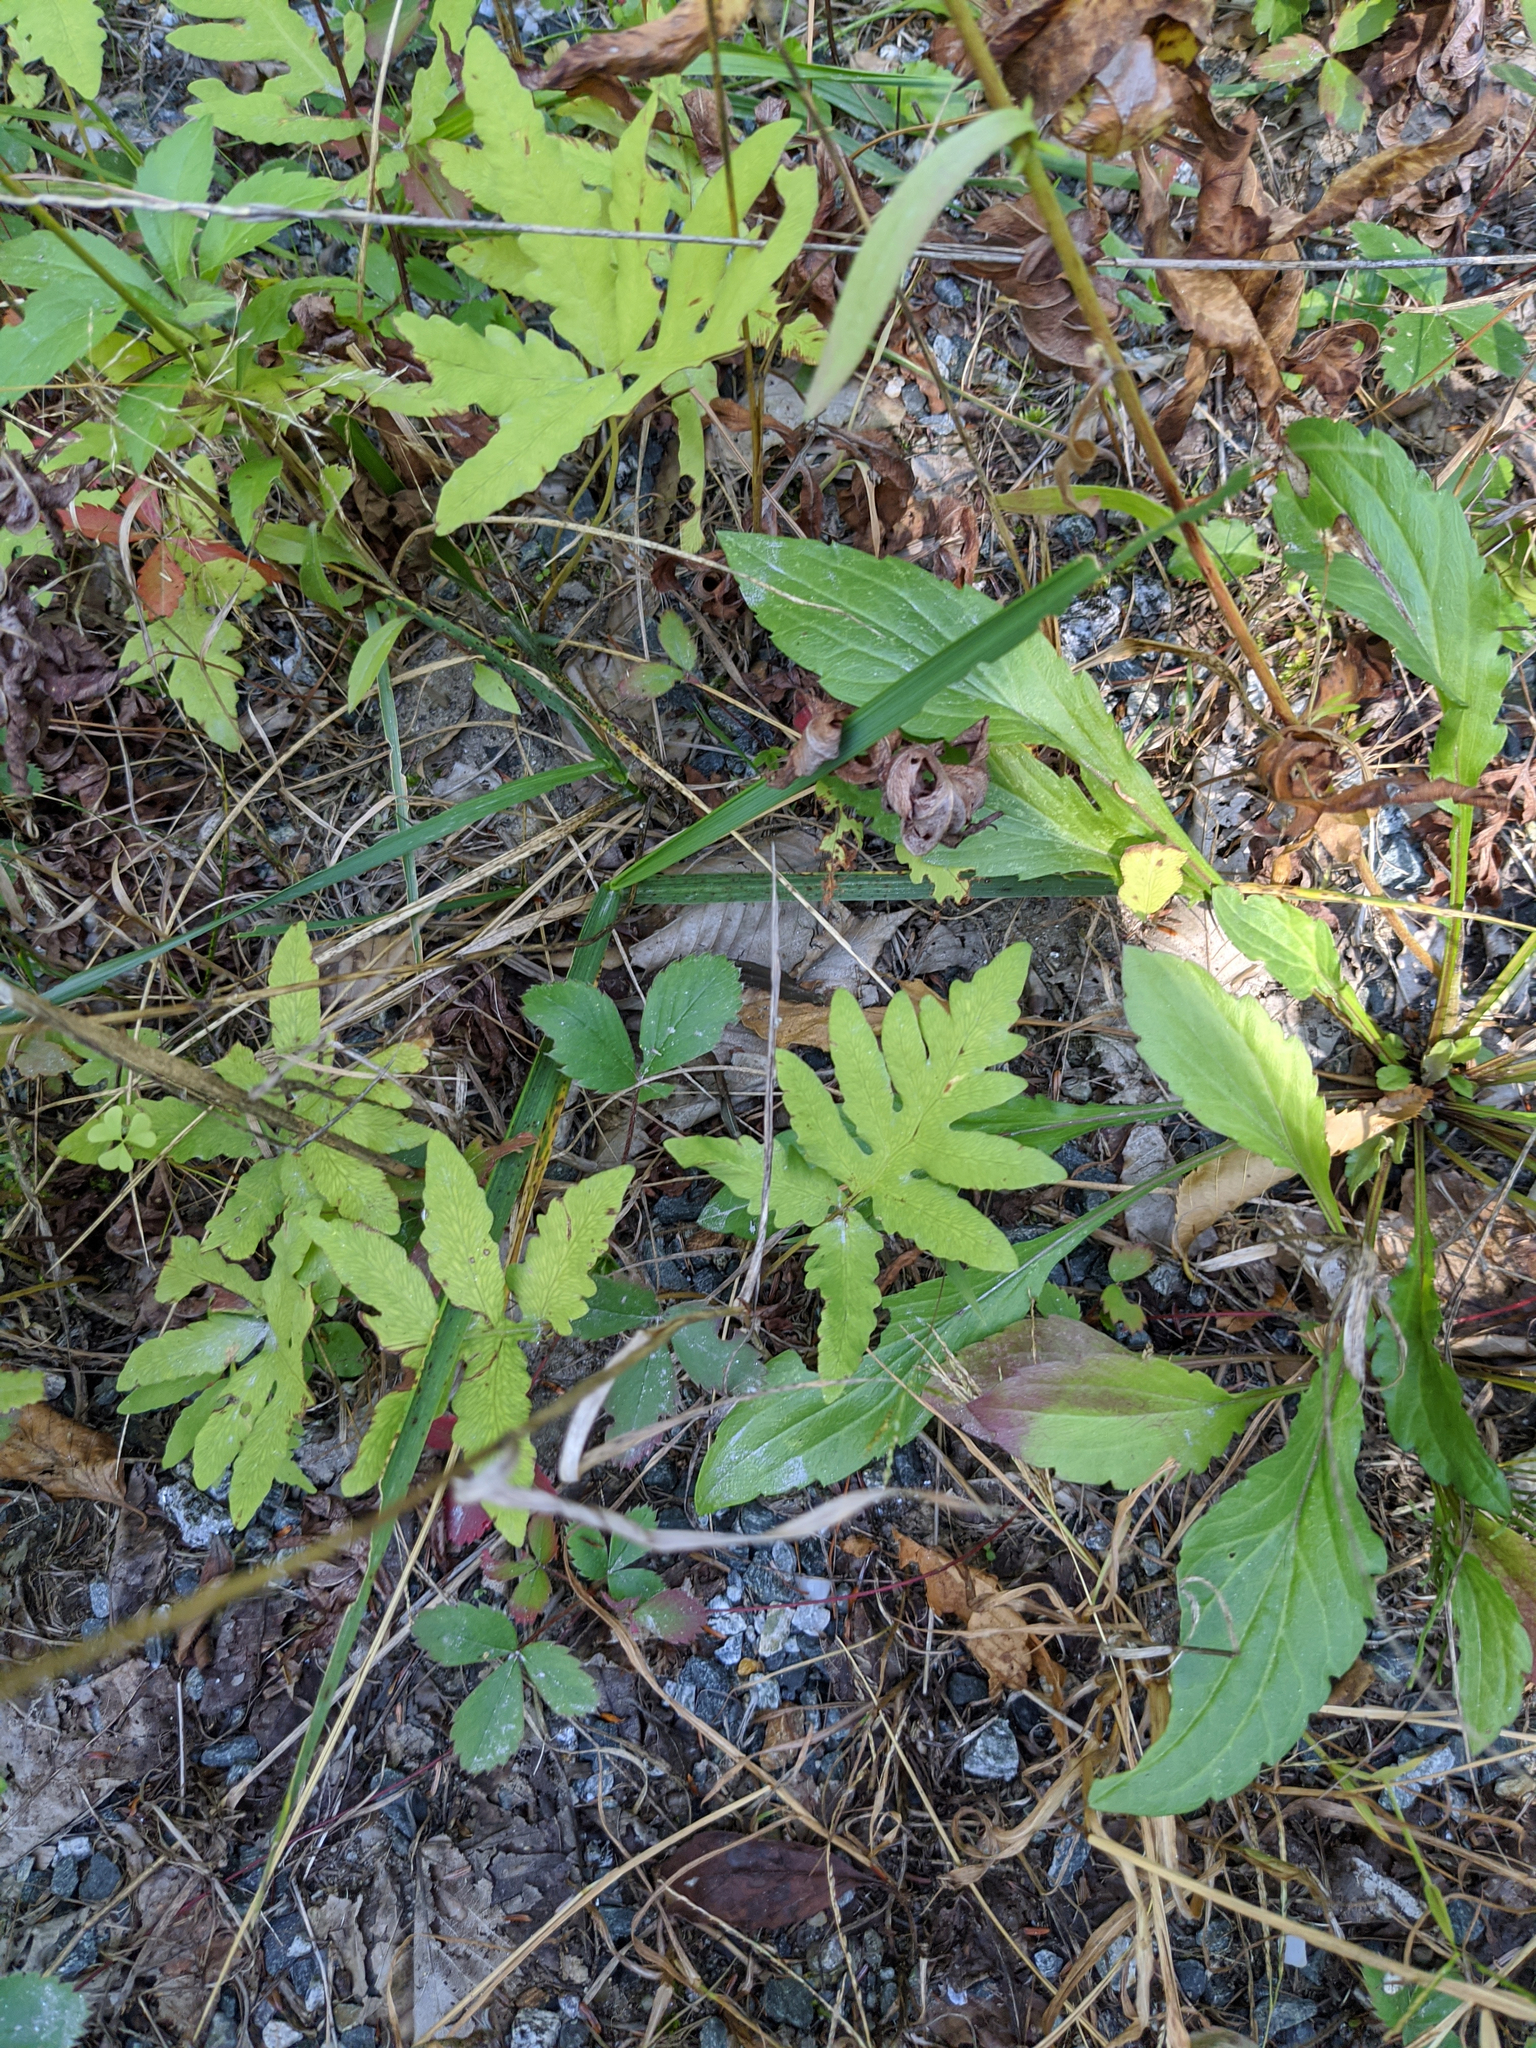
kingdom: Plantae
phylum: Tracheophyta
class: Polypodiopsida
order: Polypodiales
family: Onocleaceae
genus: Onoclea
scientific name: Onoclea sensibilis
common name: Sensitive fern
